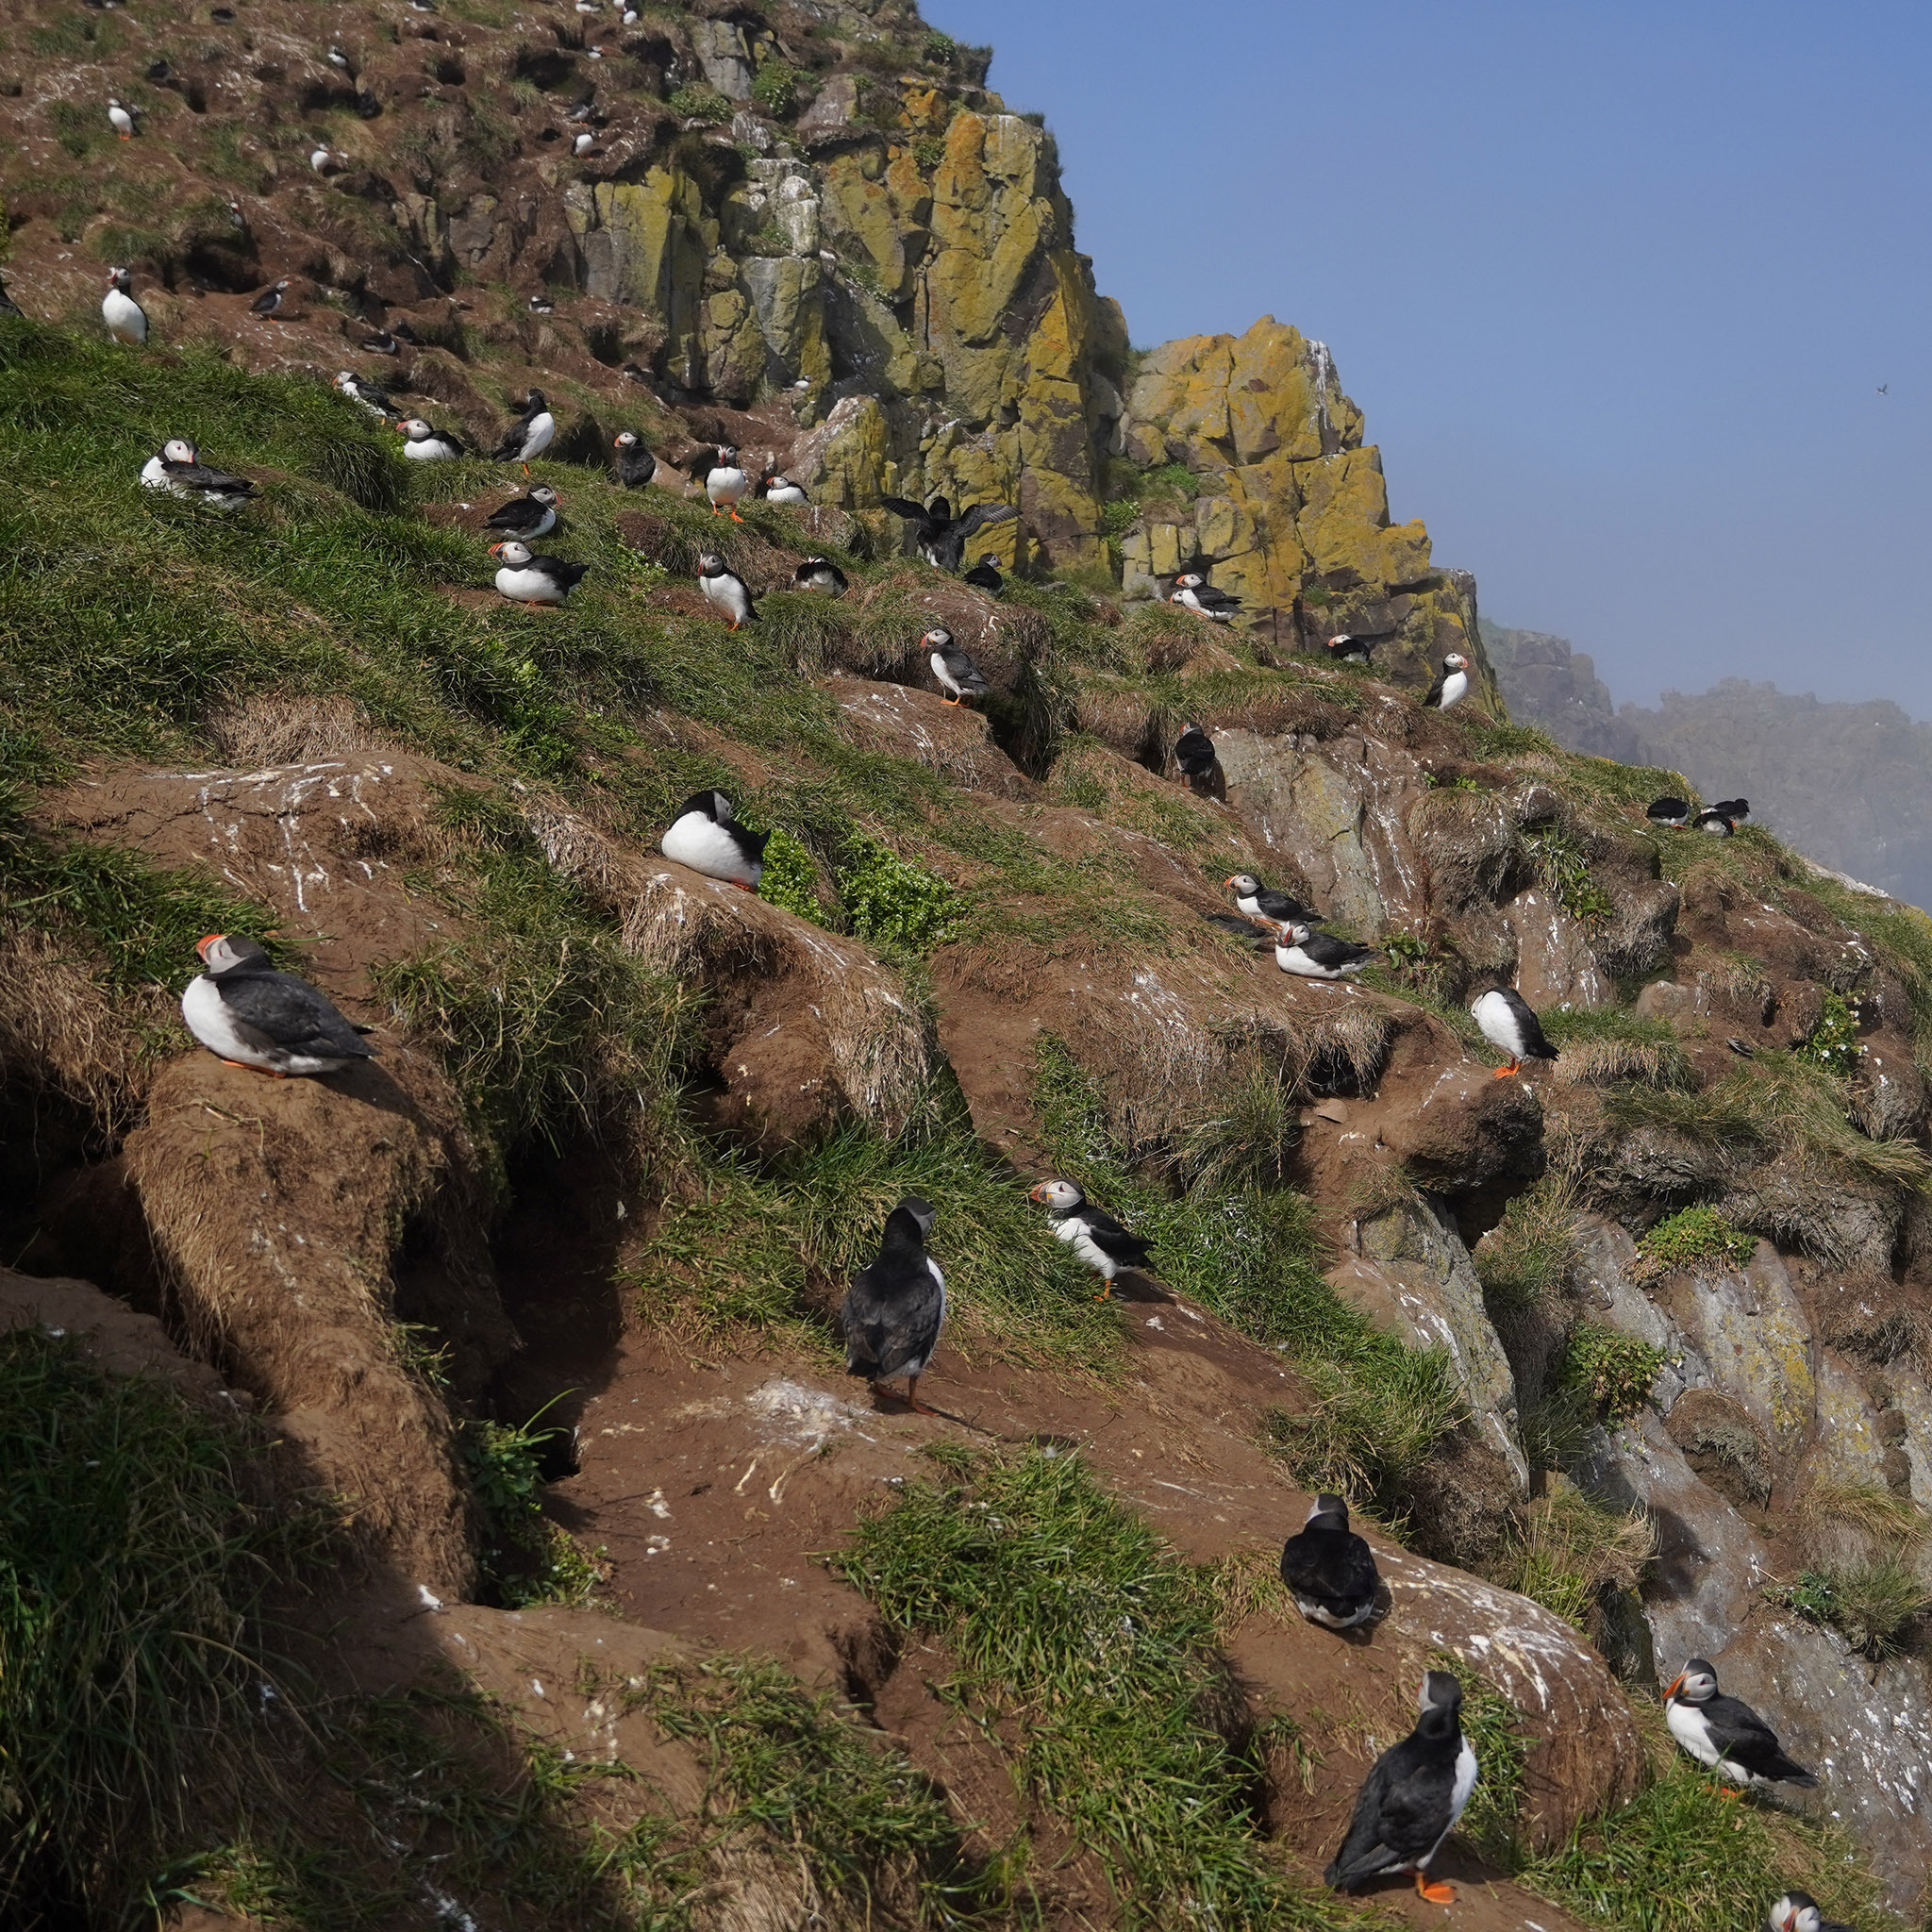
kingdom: Animalia
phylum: Chordata
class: Aves
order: Charadriiformes
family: Alcidae
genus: Fratercula
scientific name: Fratercula arctica
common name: Atlantic puffin
